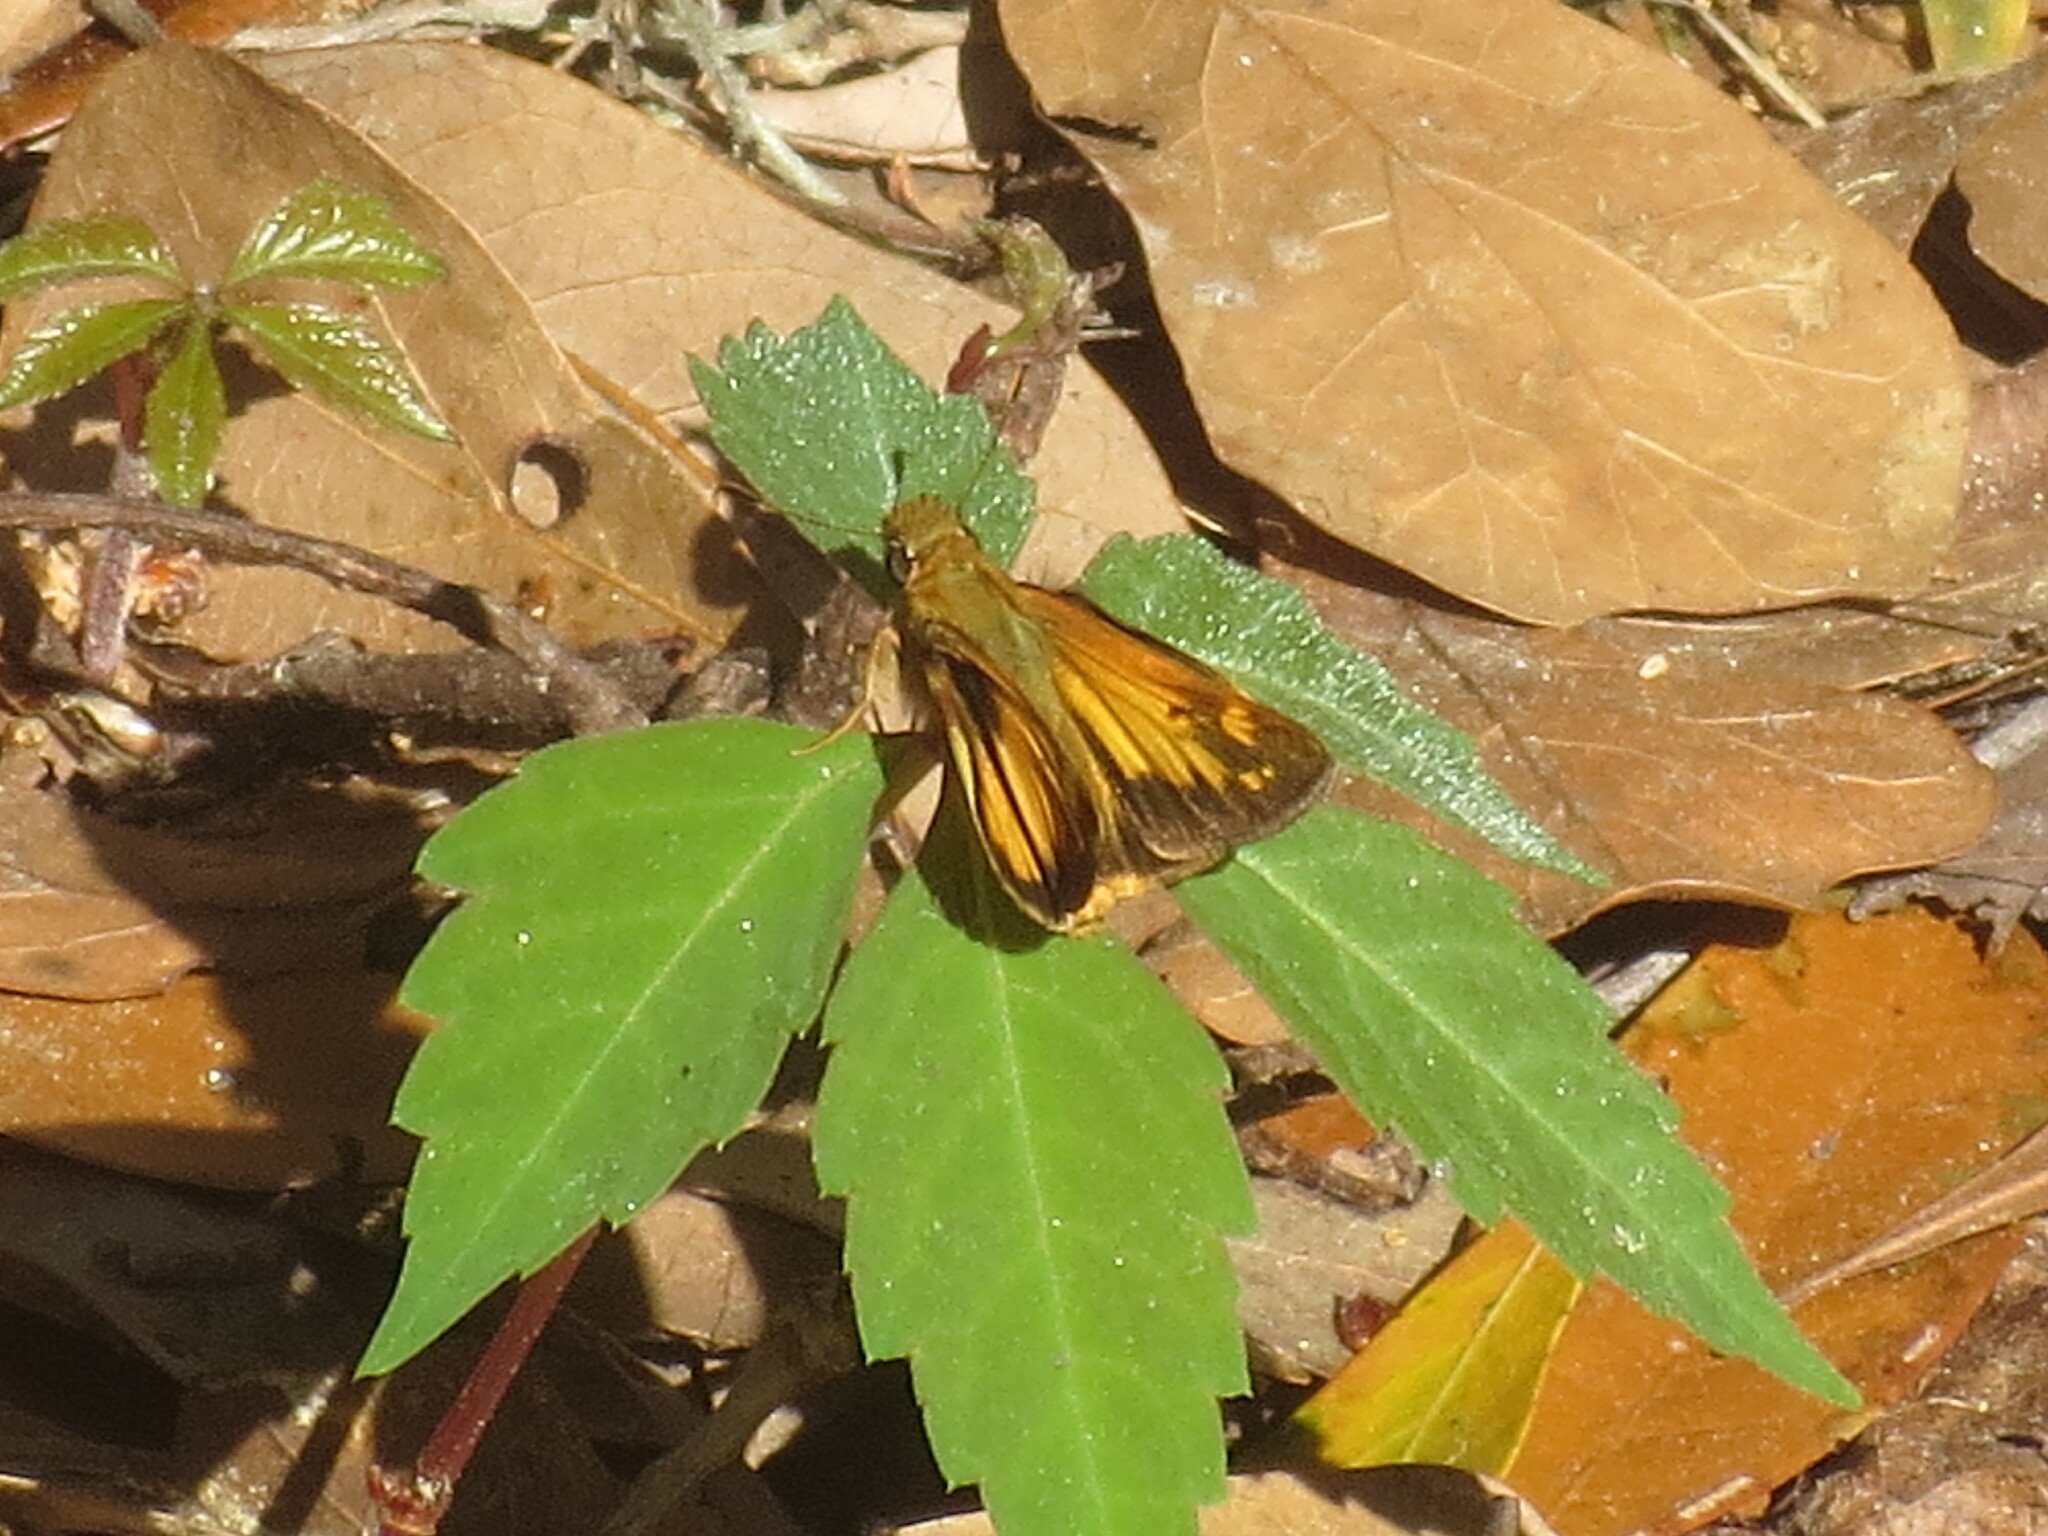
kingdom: Animalia
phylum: Arthropoda
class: Insecta
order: Lepidoptera
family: Hesperiidae
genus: Lon
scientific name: Lon zabulon
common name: Zabulon skipper
